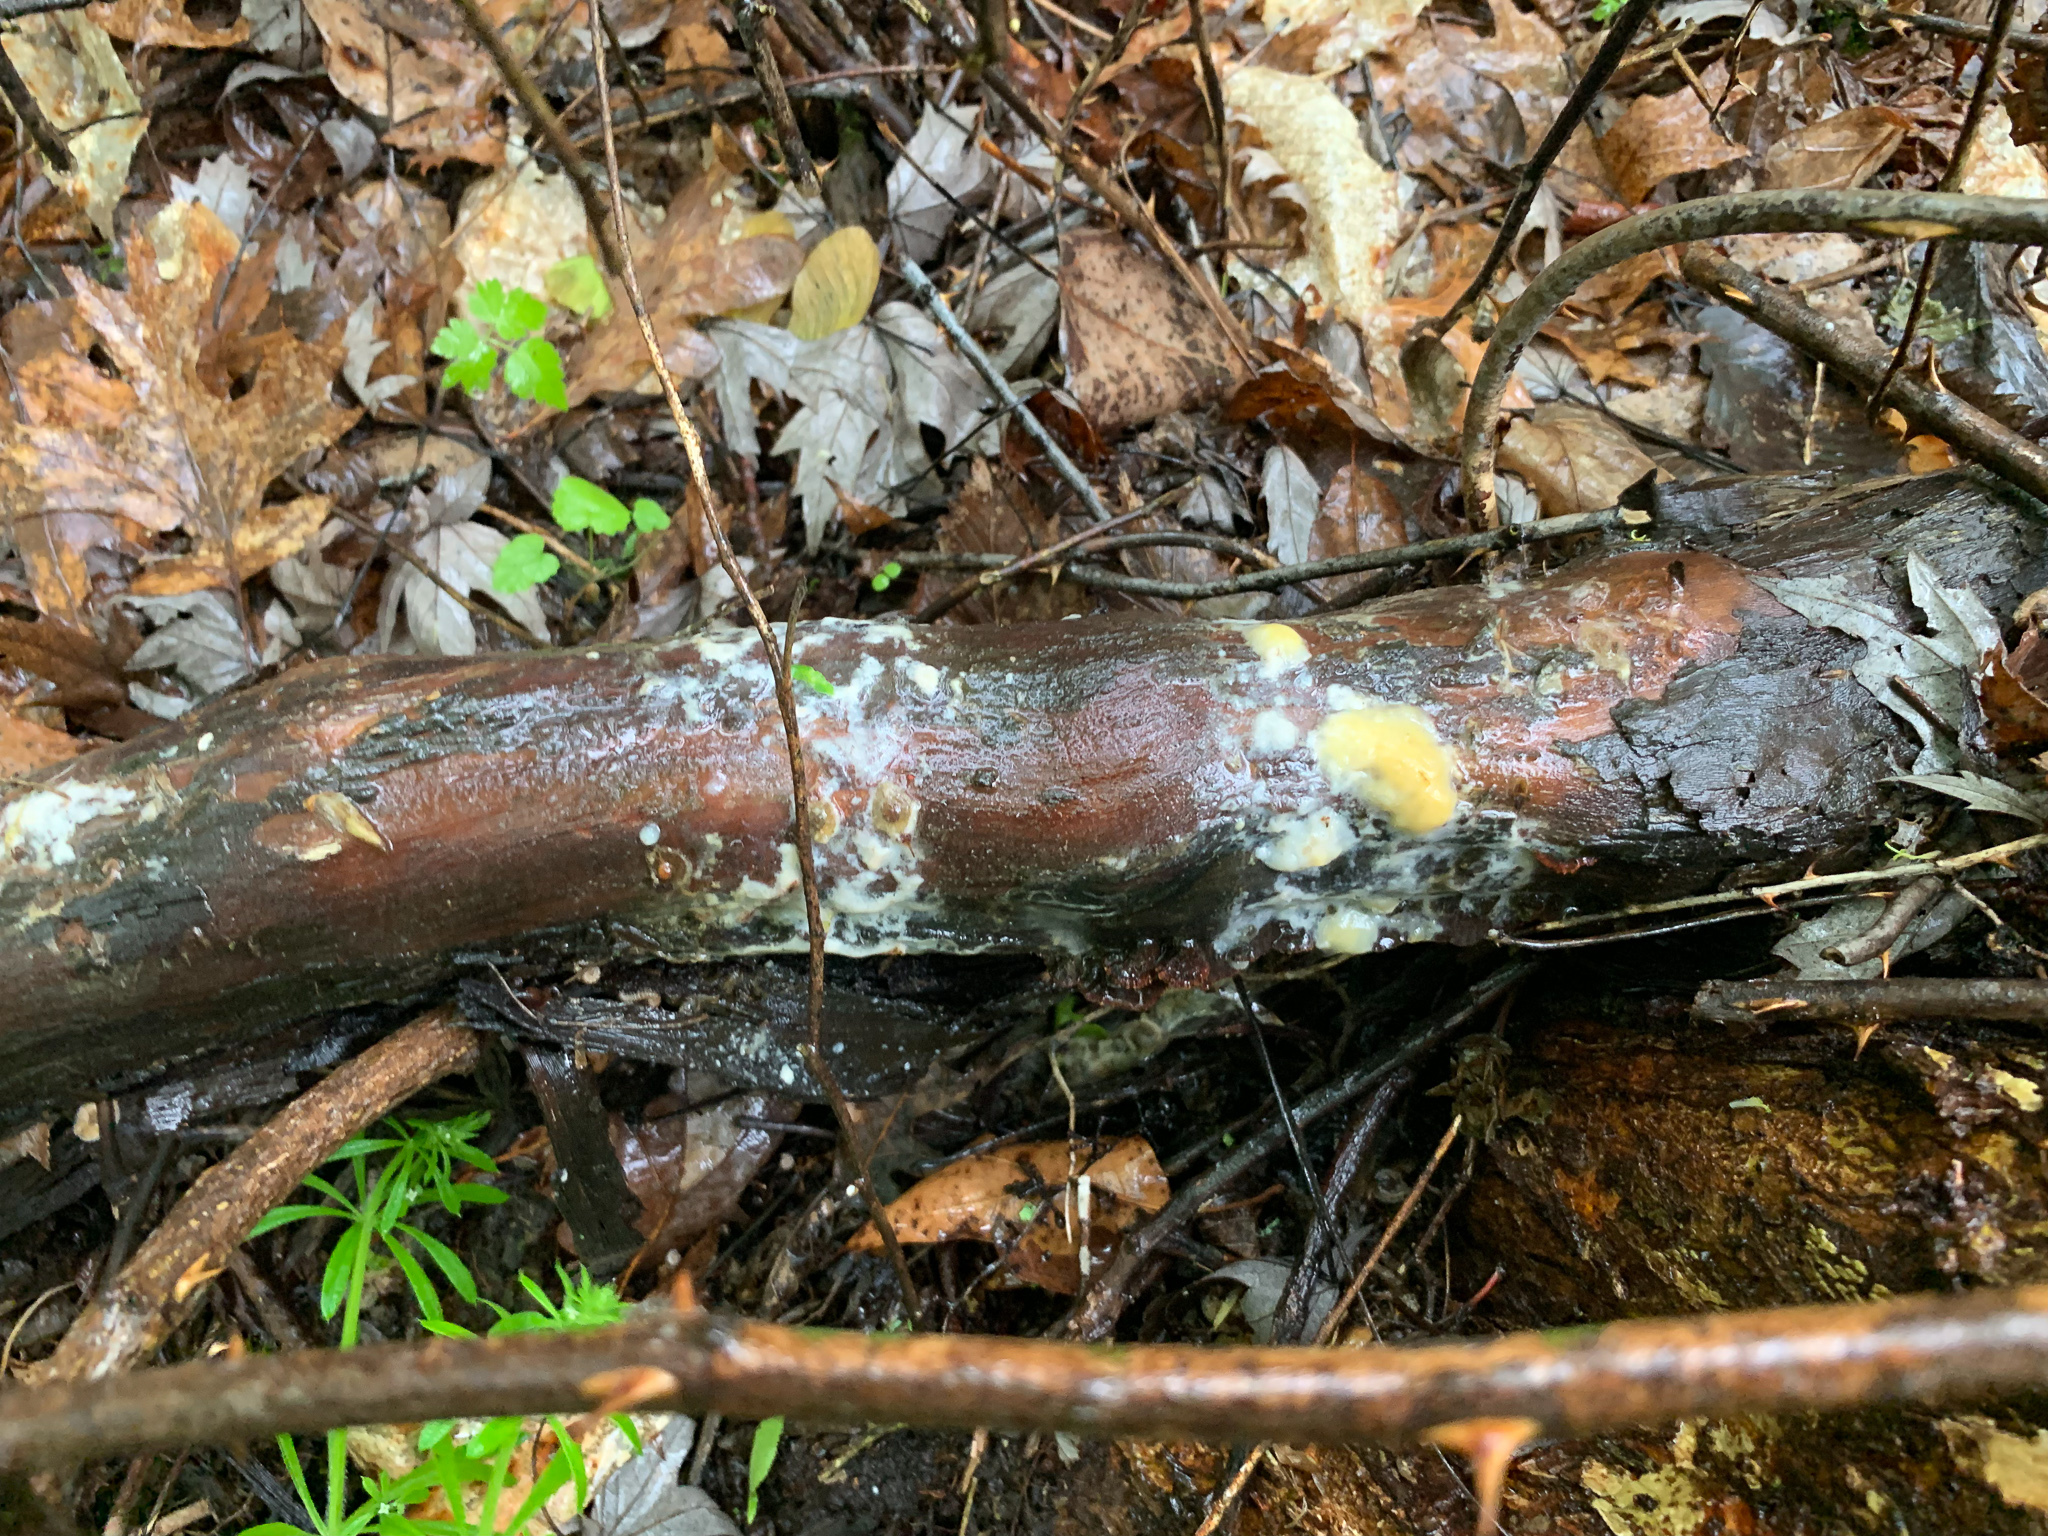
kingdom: Fungi
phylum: Ascomycota
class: Sordariomycetes
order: Hypocreales
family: Nectriaceae
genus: Fusicolla
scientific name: Fusicolla merismoides
